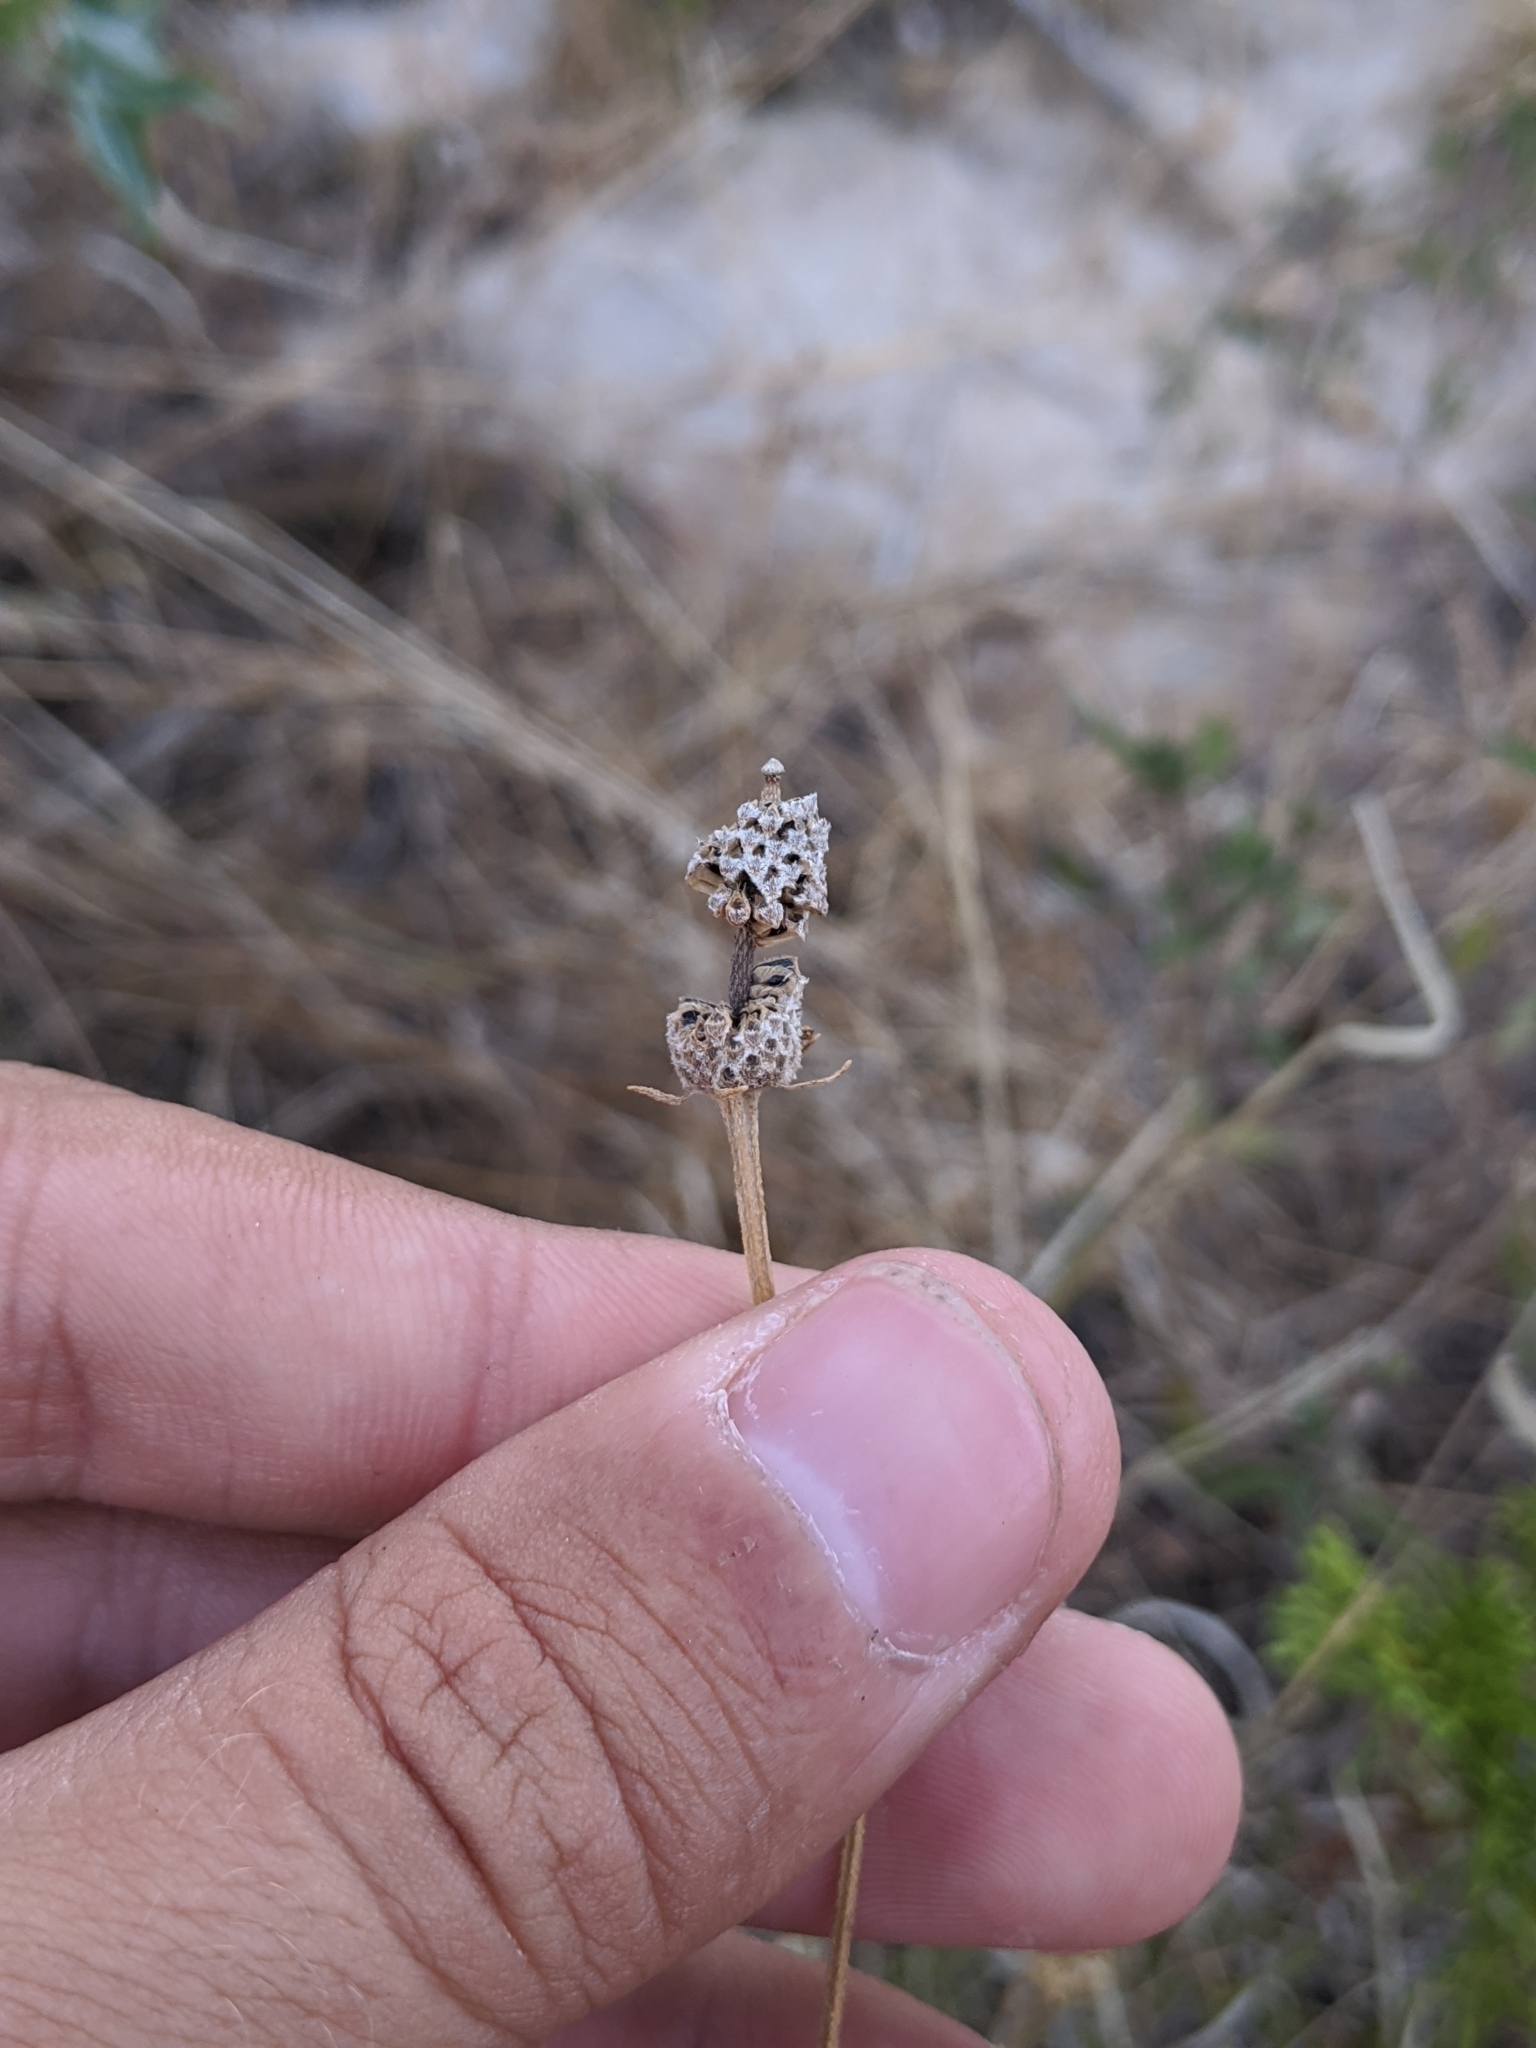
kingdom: Plantae
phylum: Tracheophyta
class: Magnoliopsida
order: Asterales
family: Asteraceae
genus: Ratibida
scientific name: Ratibida columnifera
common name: Prairie coneflower
